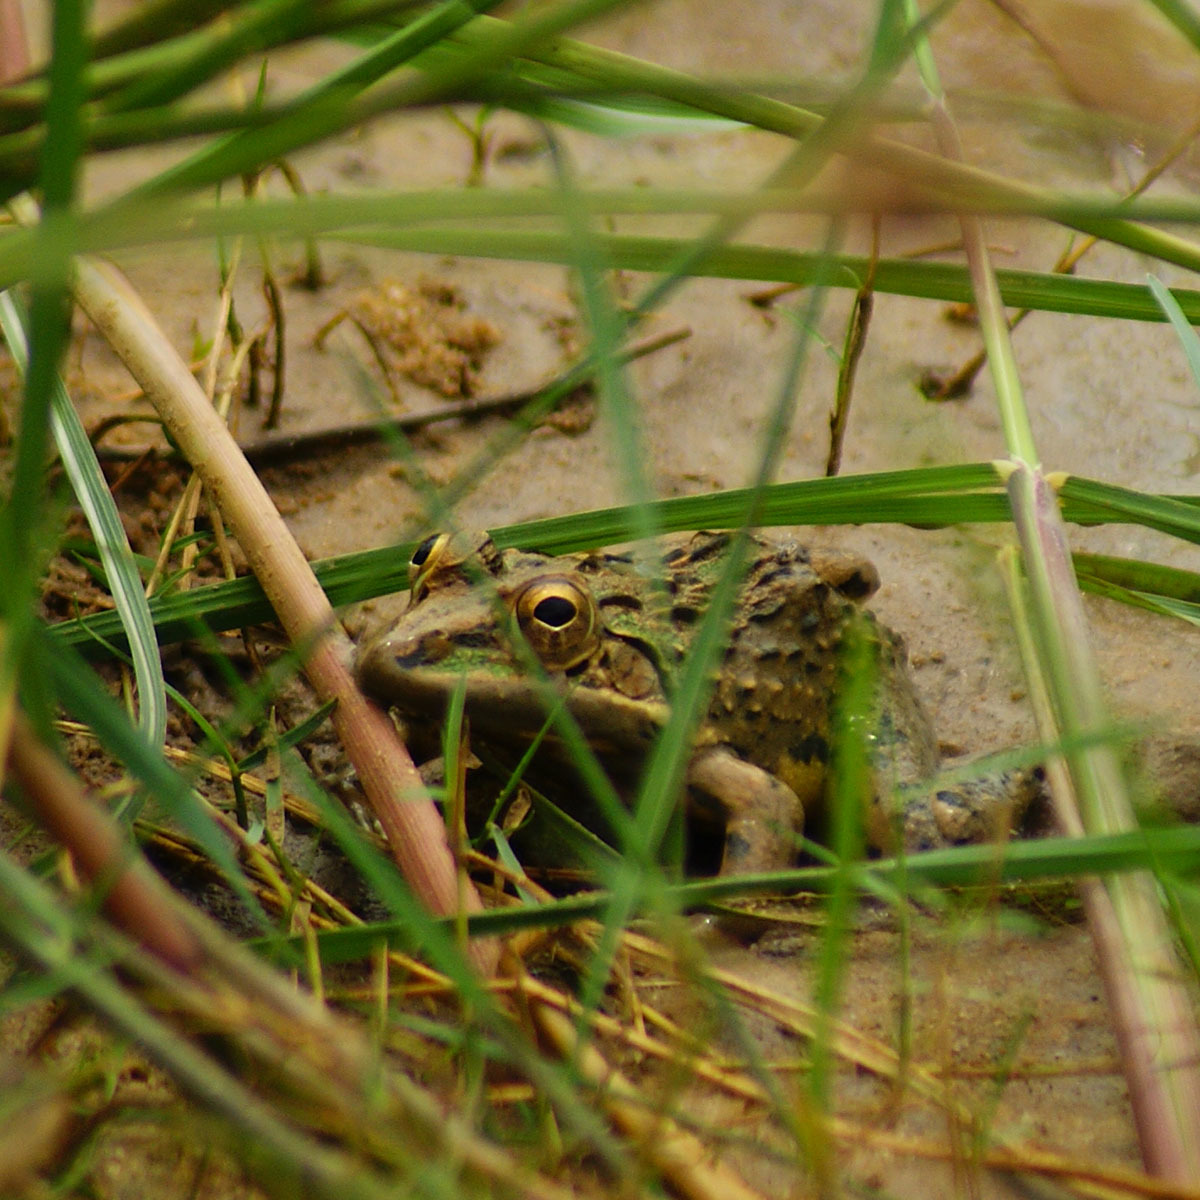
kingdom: Animalia
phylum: Chordata
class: Amphibia
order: Anura
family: Dicroglossidae
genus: Hoplobatrachus
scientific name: Hoplobatrachus tigerinus
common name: Indian bullfrog
